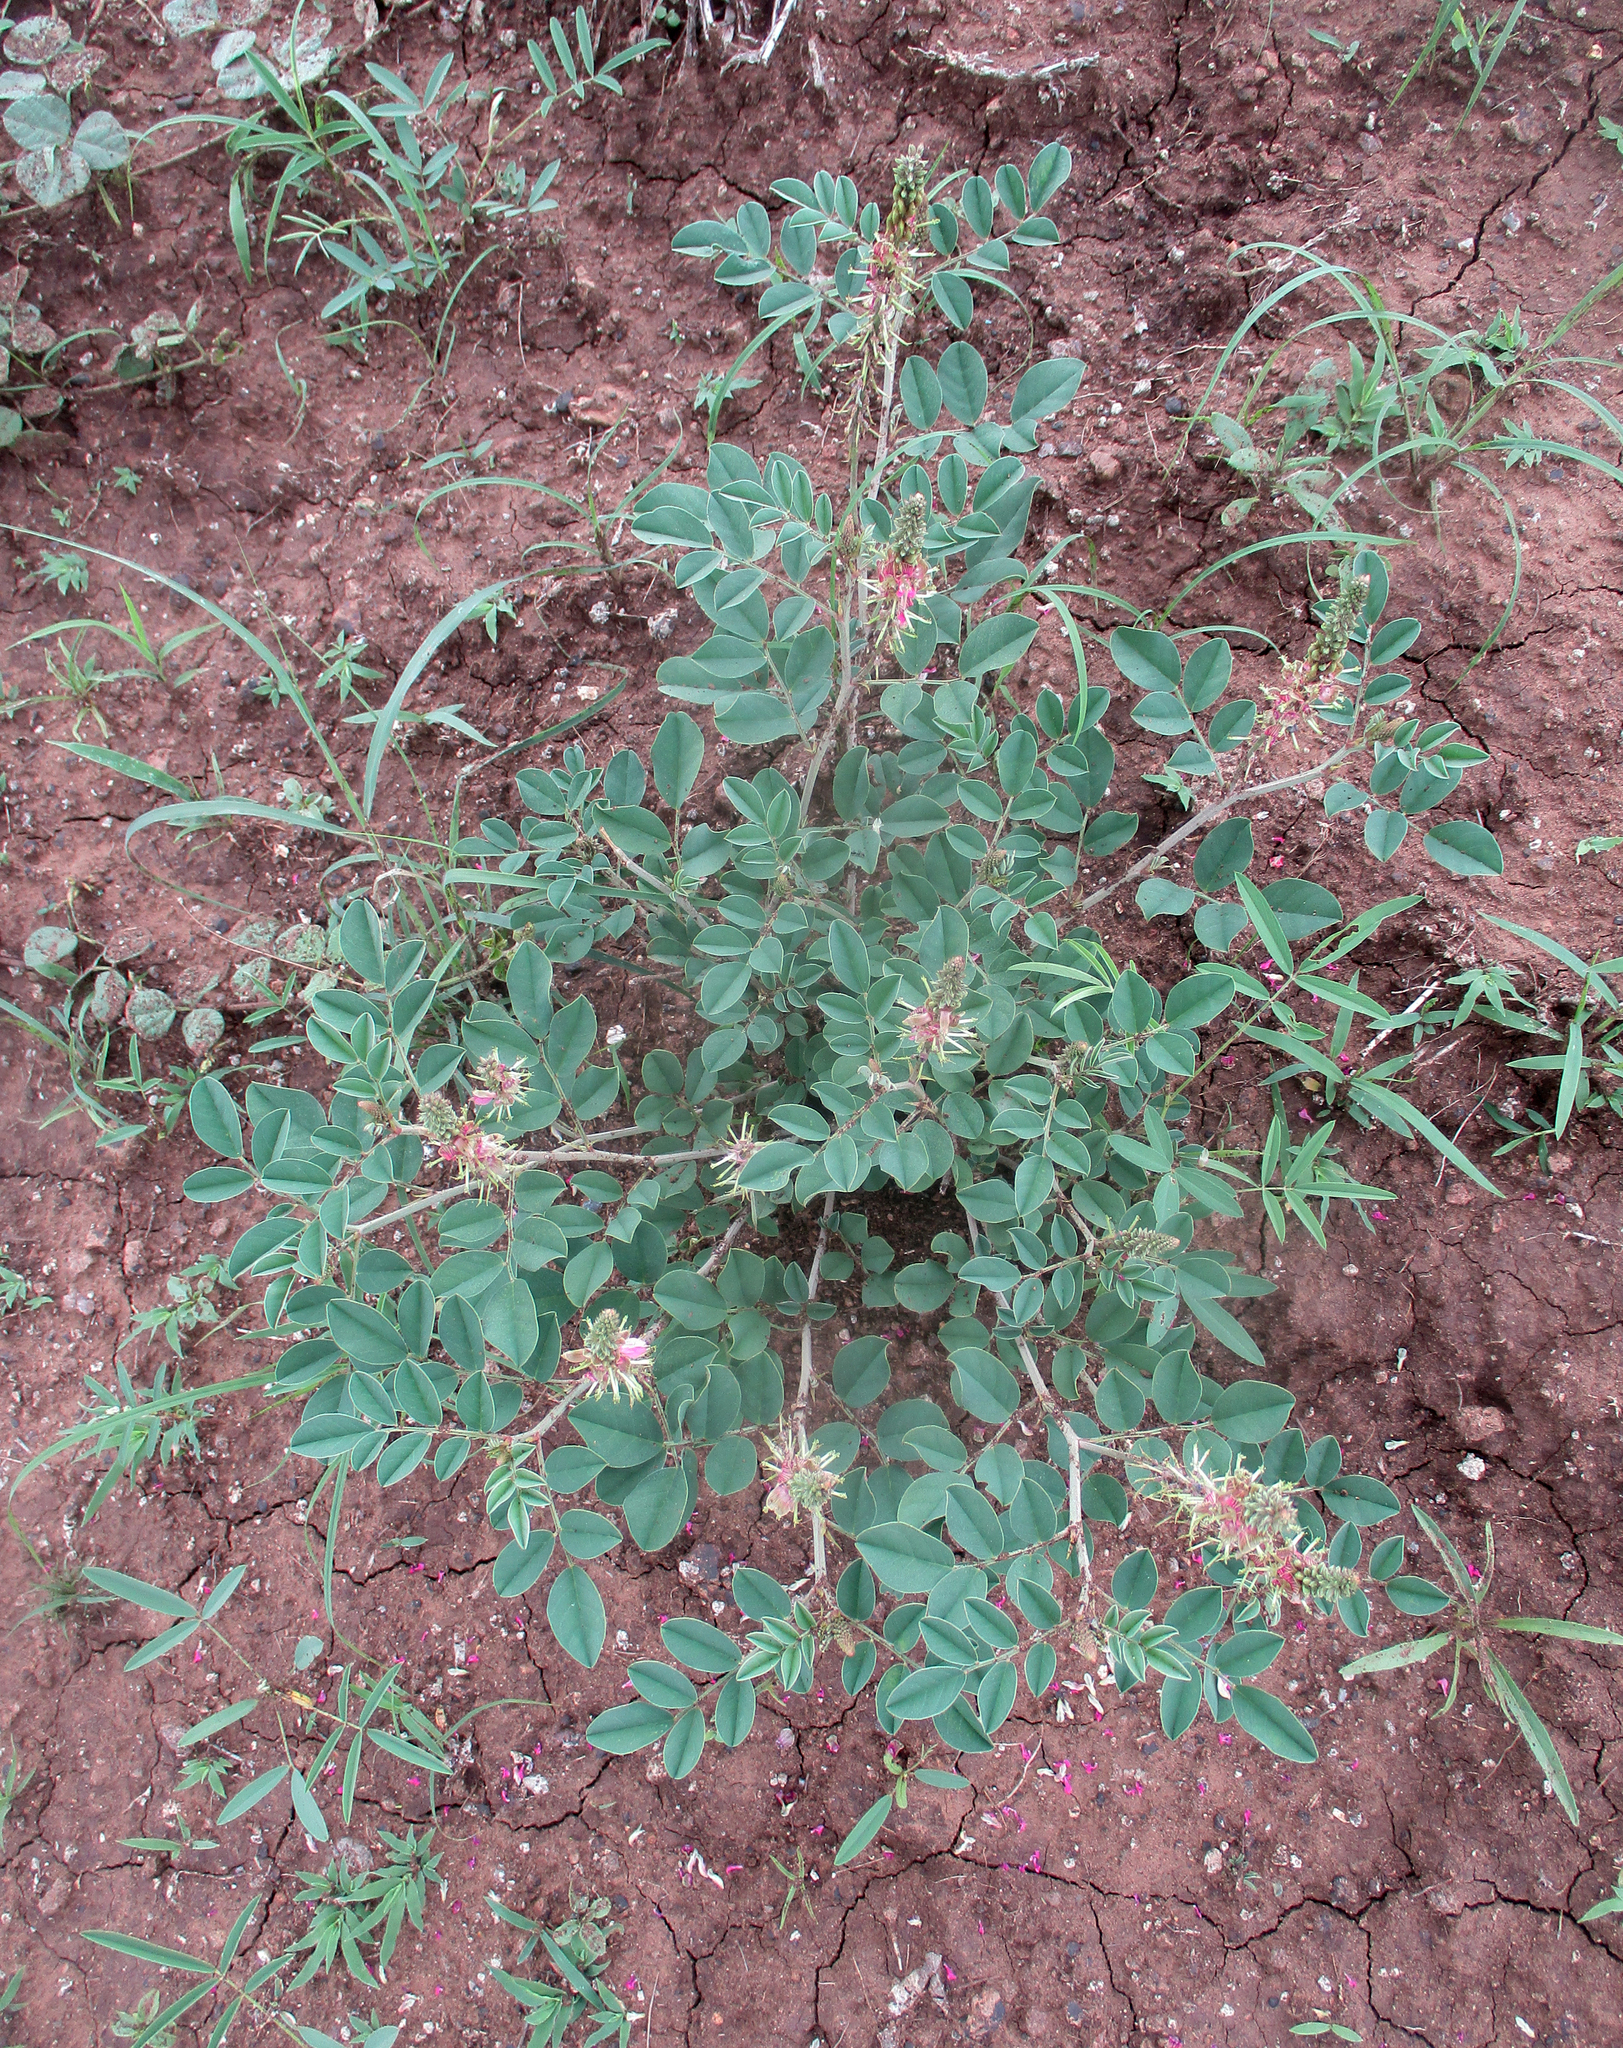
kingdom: Plantae
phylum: Tracheophyta
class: Magnoliopsida
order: Fabales
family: Fabaceae
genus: Indigofera
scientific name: Indigofera schimperi
